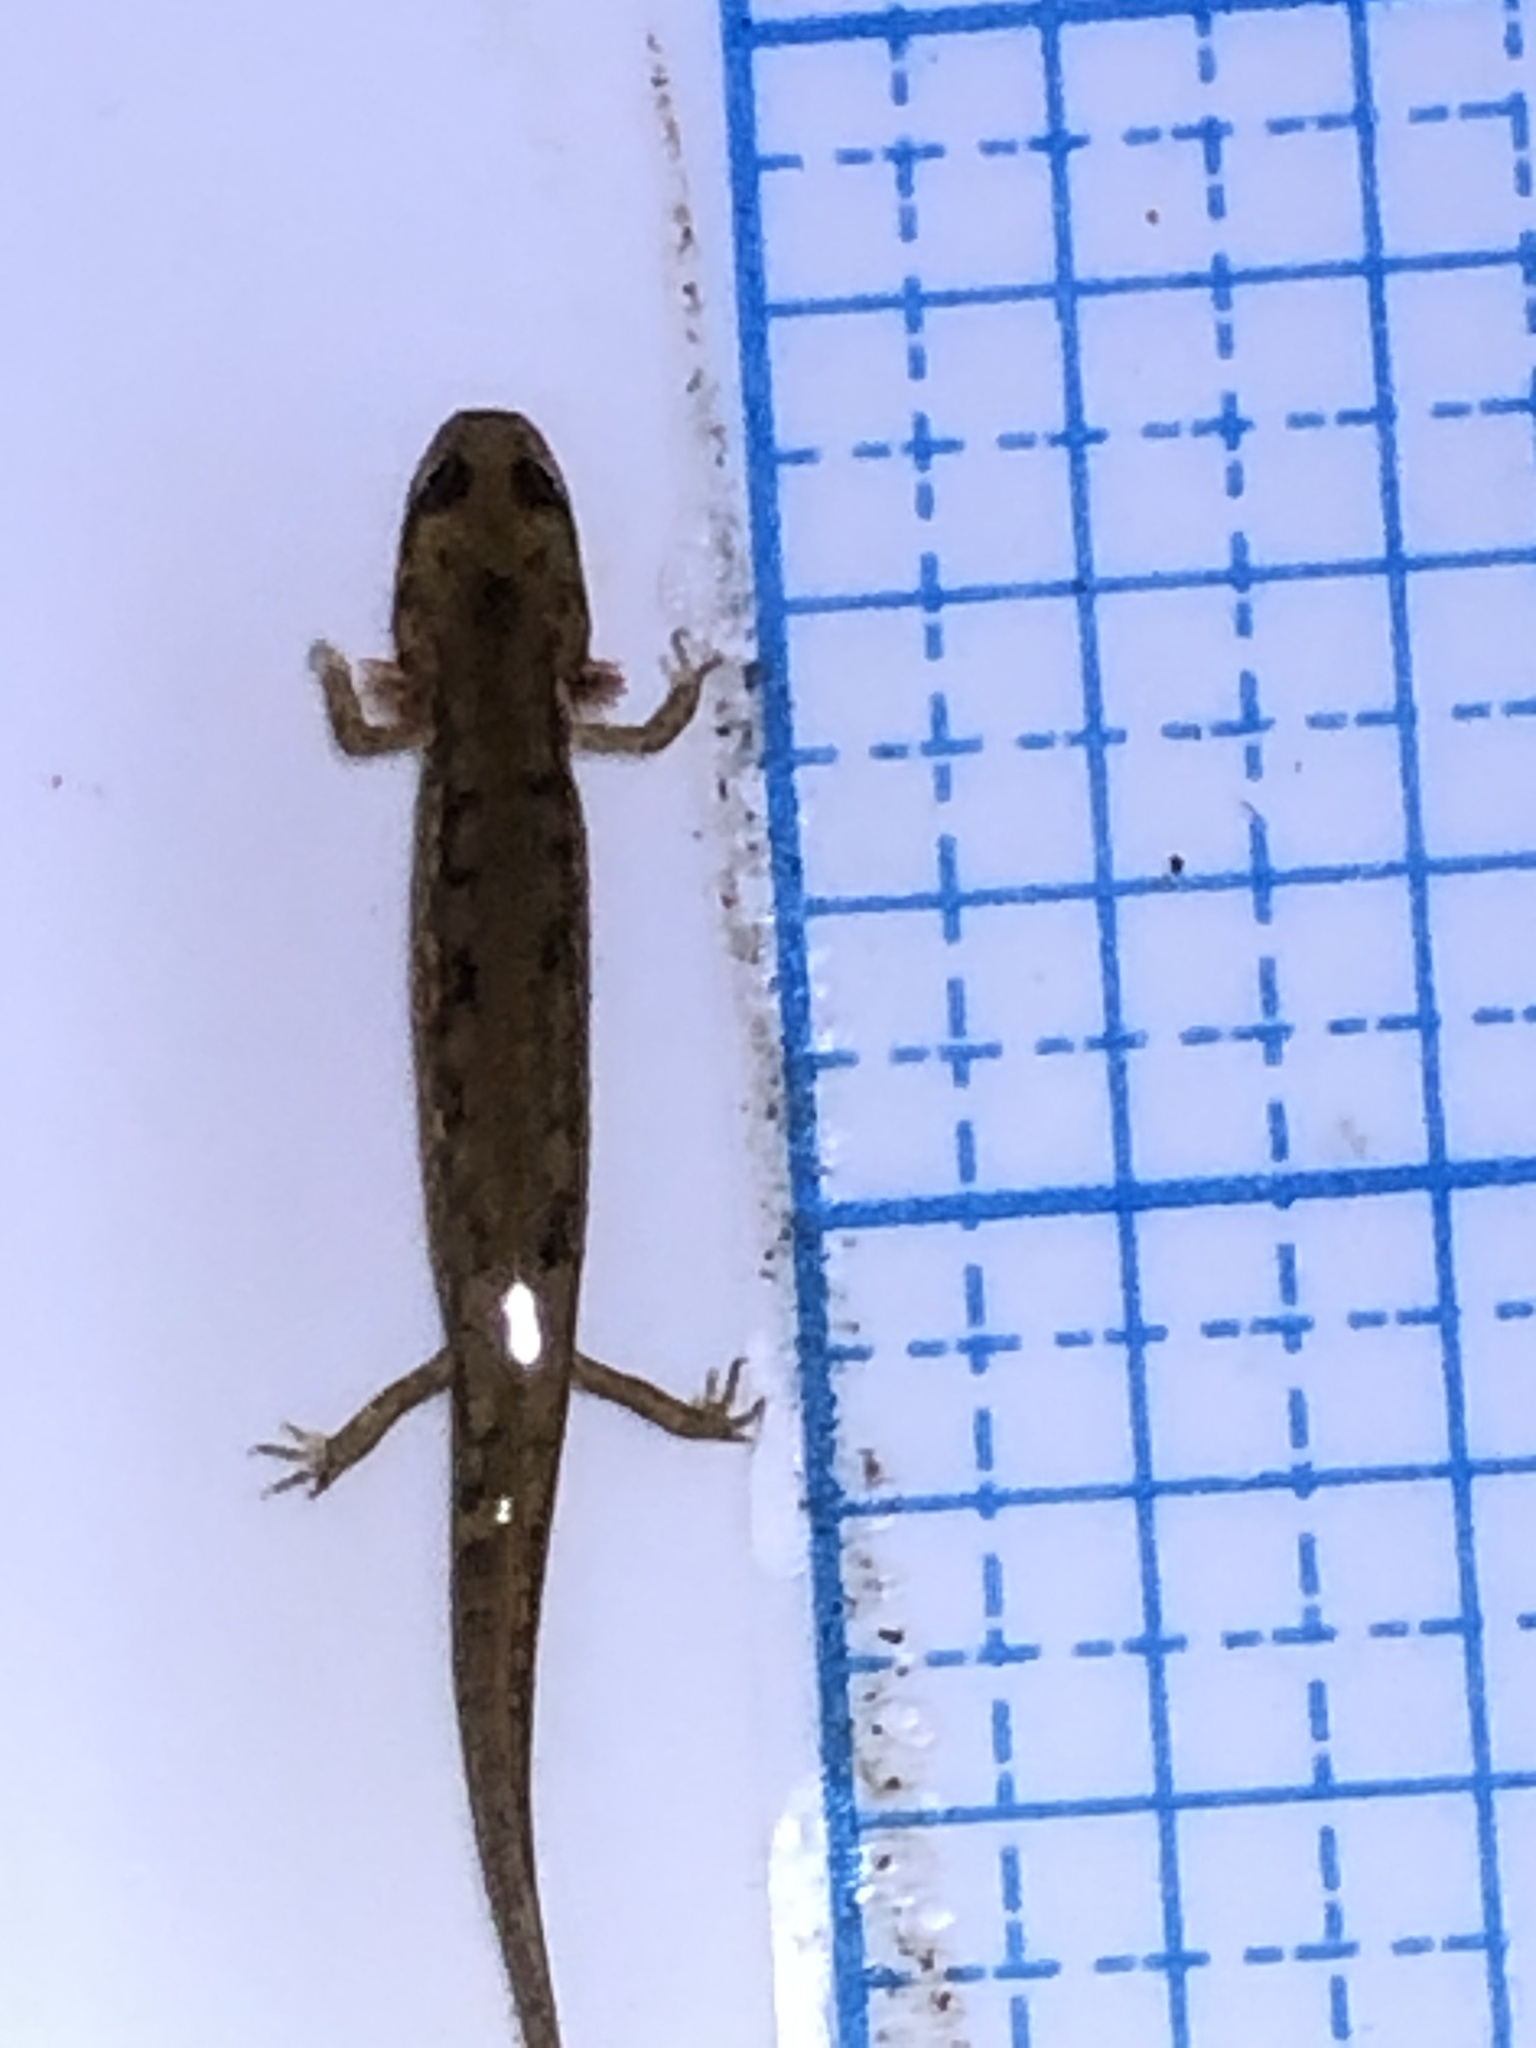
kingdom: Animalia
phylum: Chordata
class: Amphibia
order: Caudata
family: Plethodontidae
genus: Eurycea
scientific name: Eurycea bislineata
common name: Northern two-lined salamander
